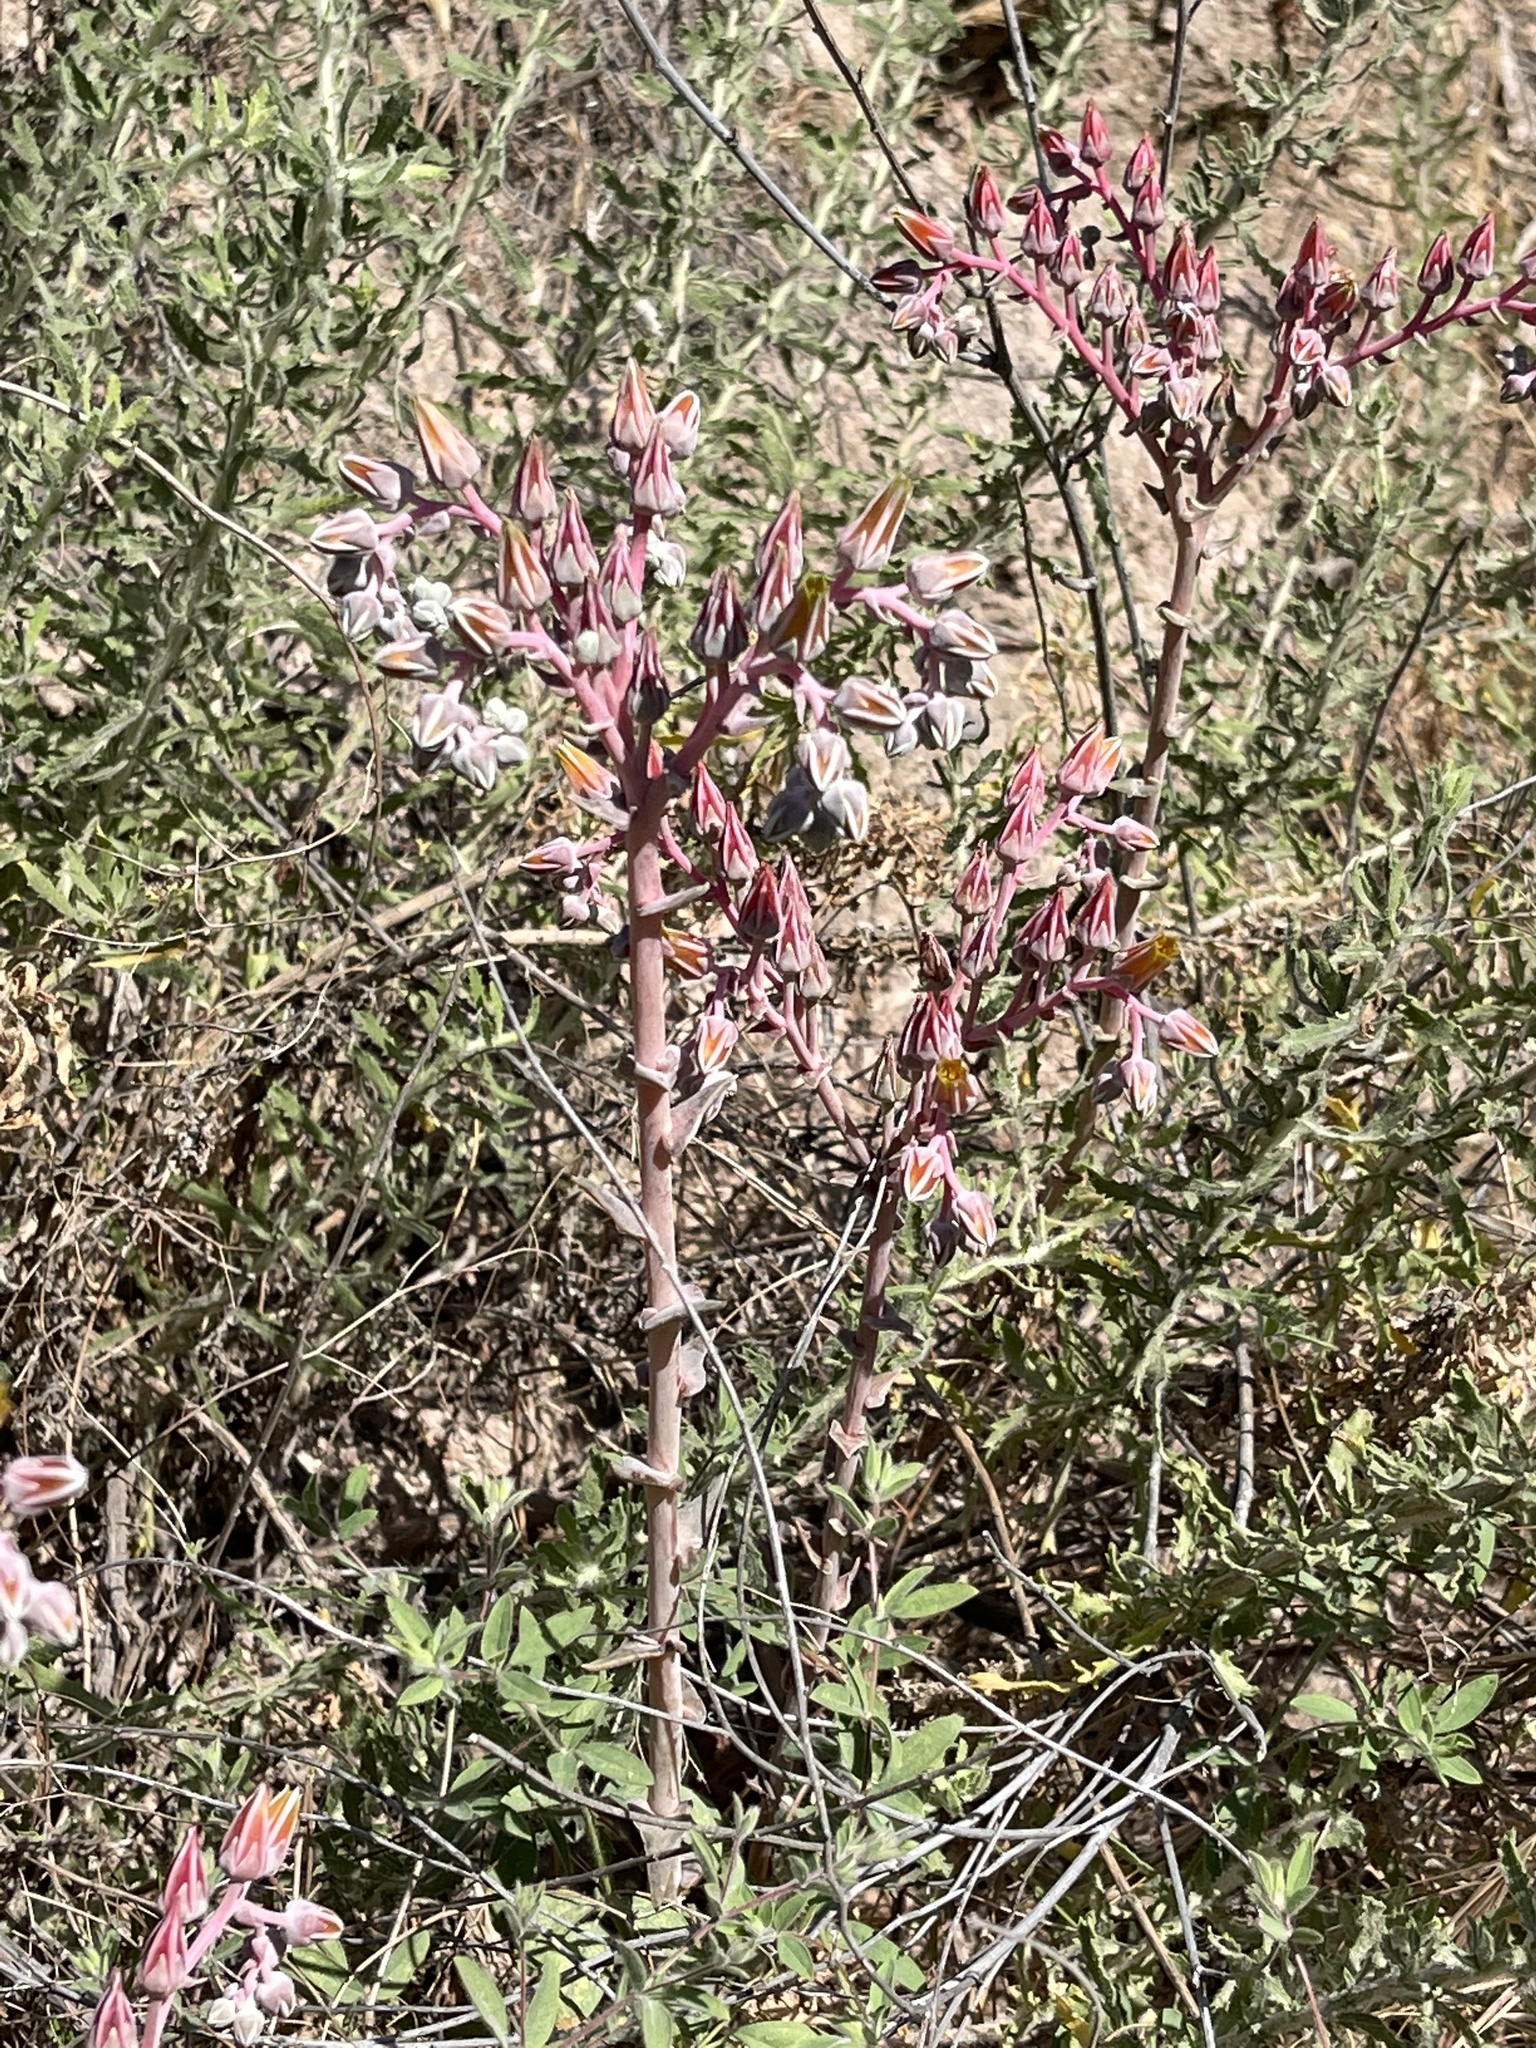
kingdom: Plantae
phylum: Tracheophyta
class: Magnoliopsida
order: Saxifragales
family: Crassulaceae
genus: Dudleya
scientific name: Dudleya lanceolata
